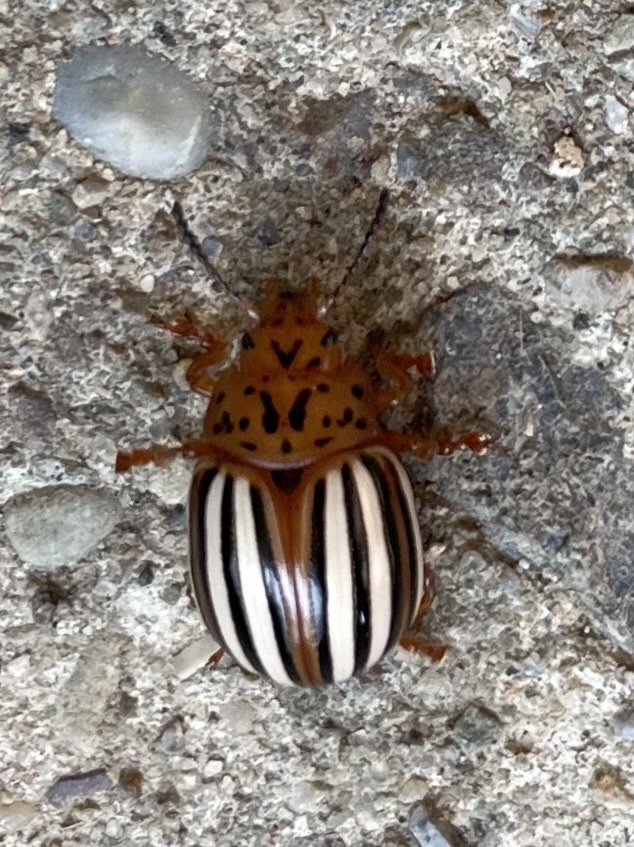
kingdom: Animalia
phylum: Arthropoda
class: Insecta
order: Coleoptera
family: Chrysomelidae
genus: Leptinotarsa
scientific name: Leptinotarsa juncta
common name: False potato beetle
